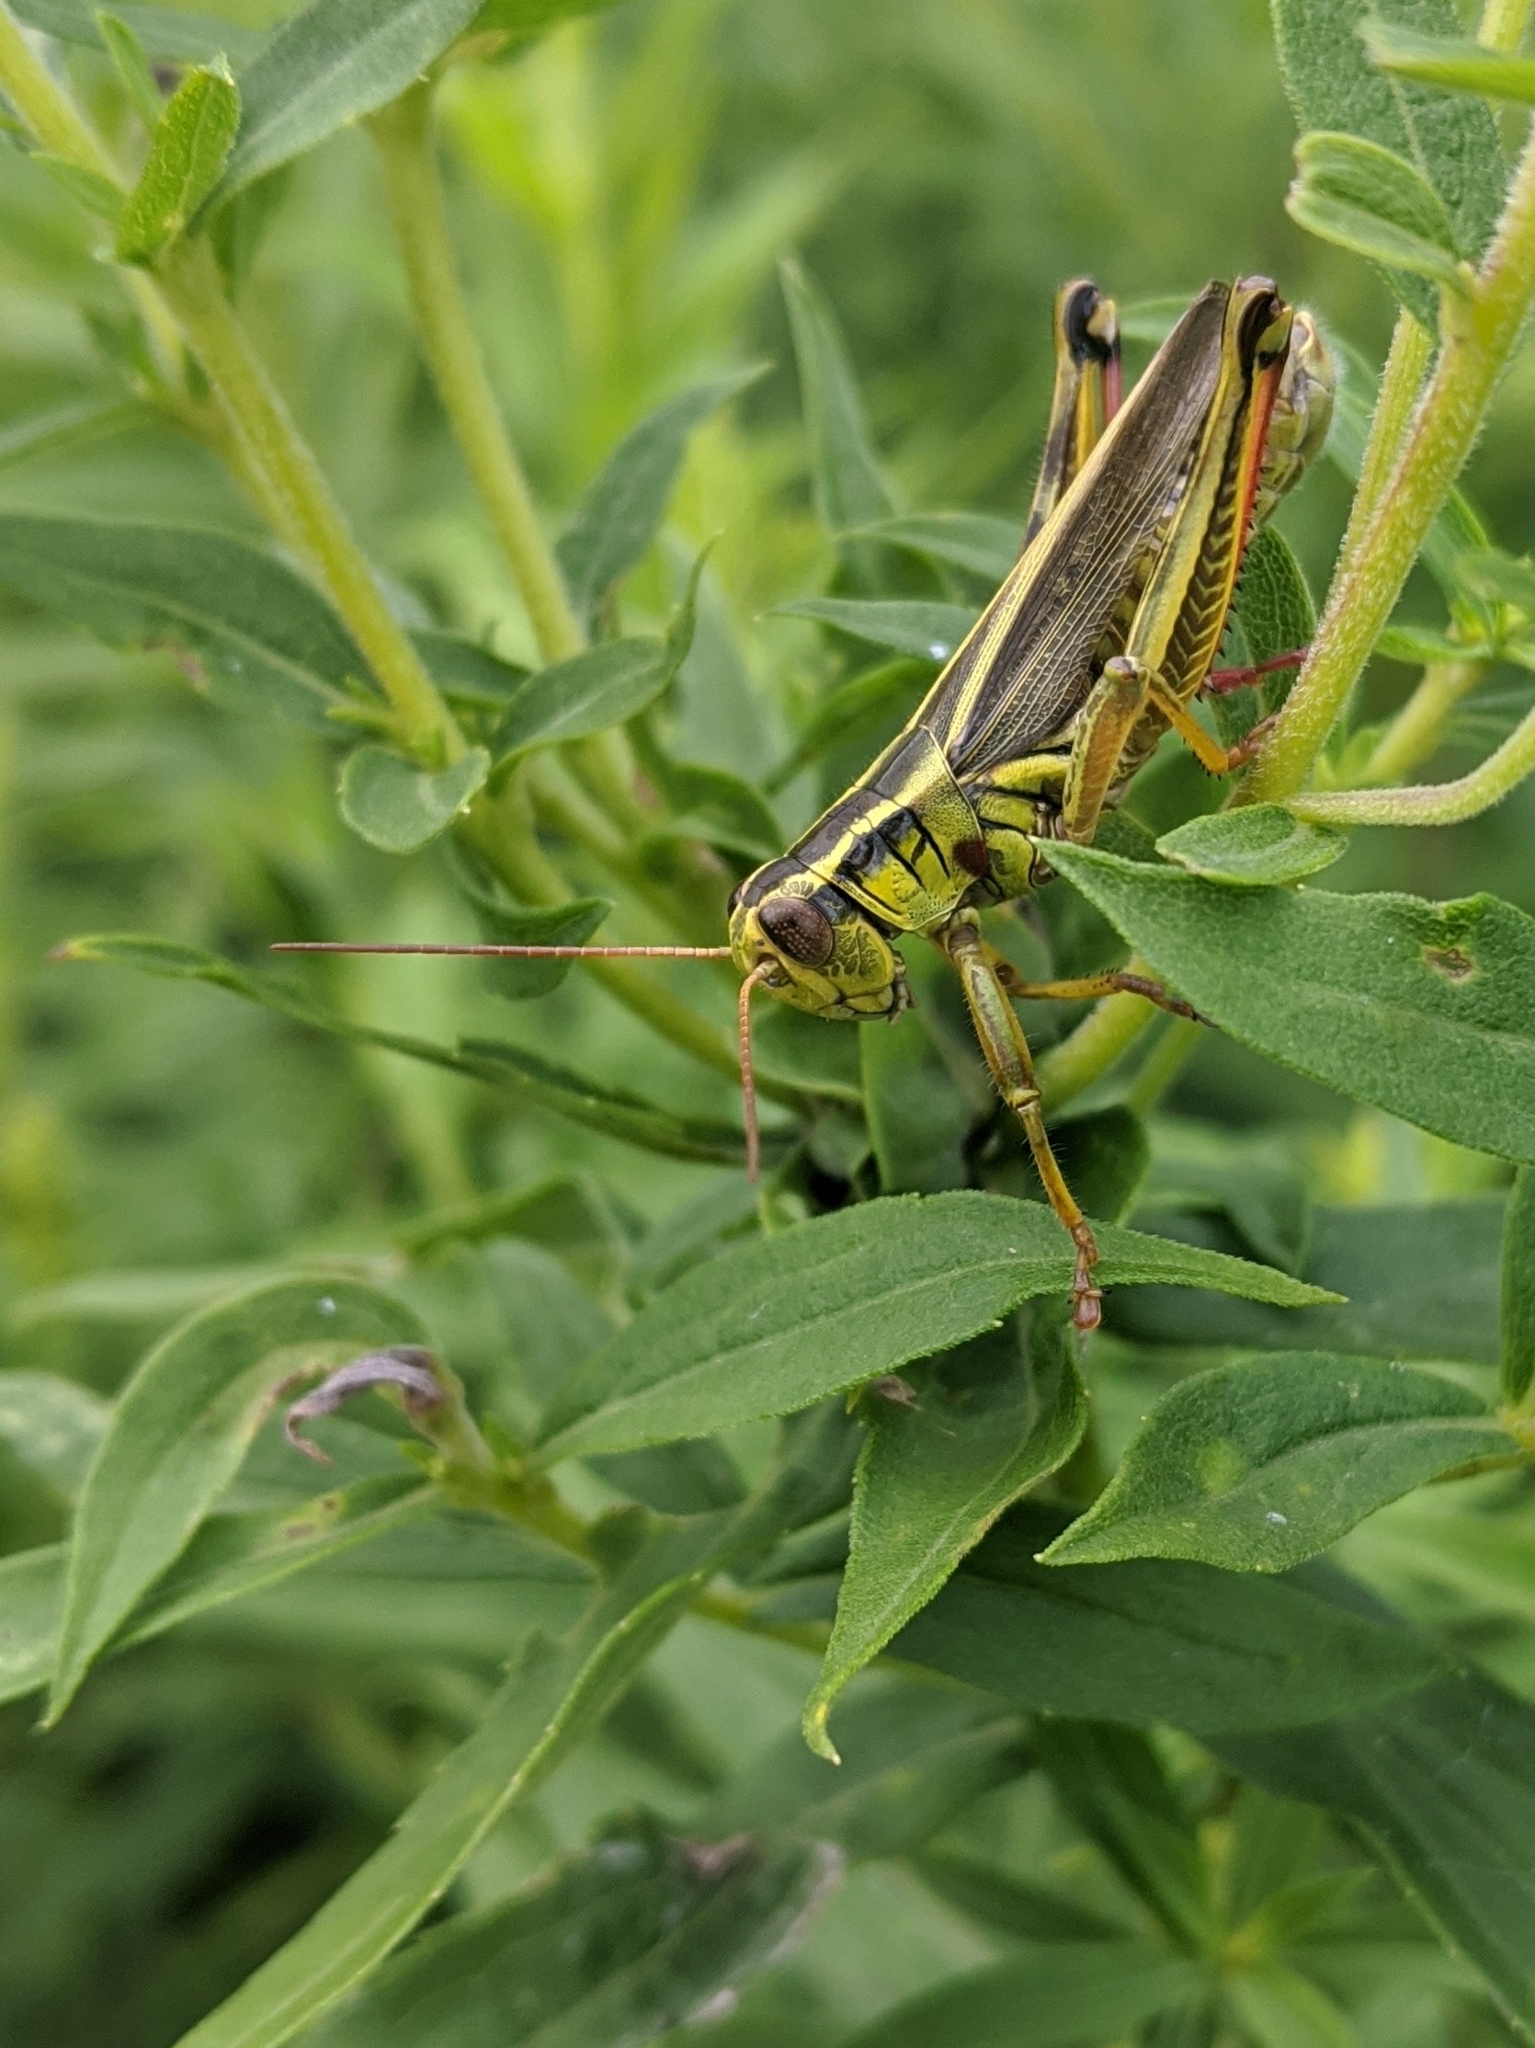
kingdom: Animalia
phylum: Arthropoda
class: Insecta
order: Orthoptera
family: Acrididae
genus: Melanoplus
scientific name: Melanoplus bivittatus
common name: Two-striped grasshopper
